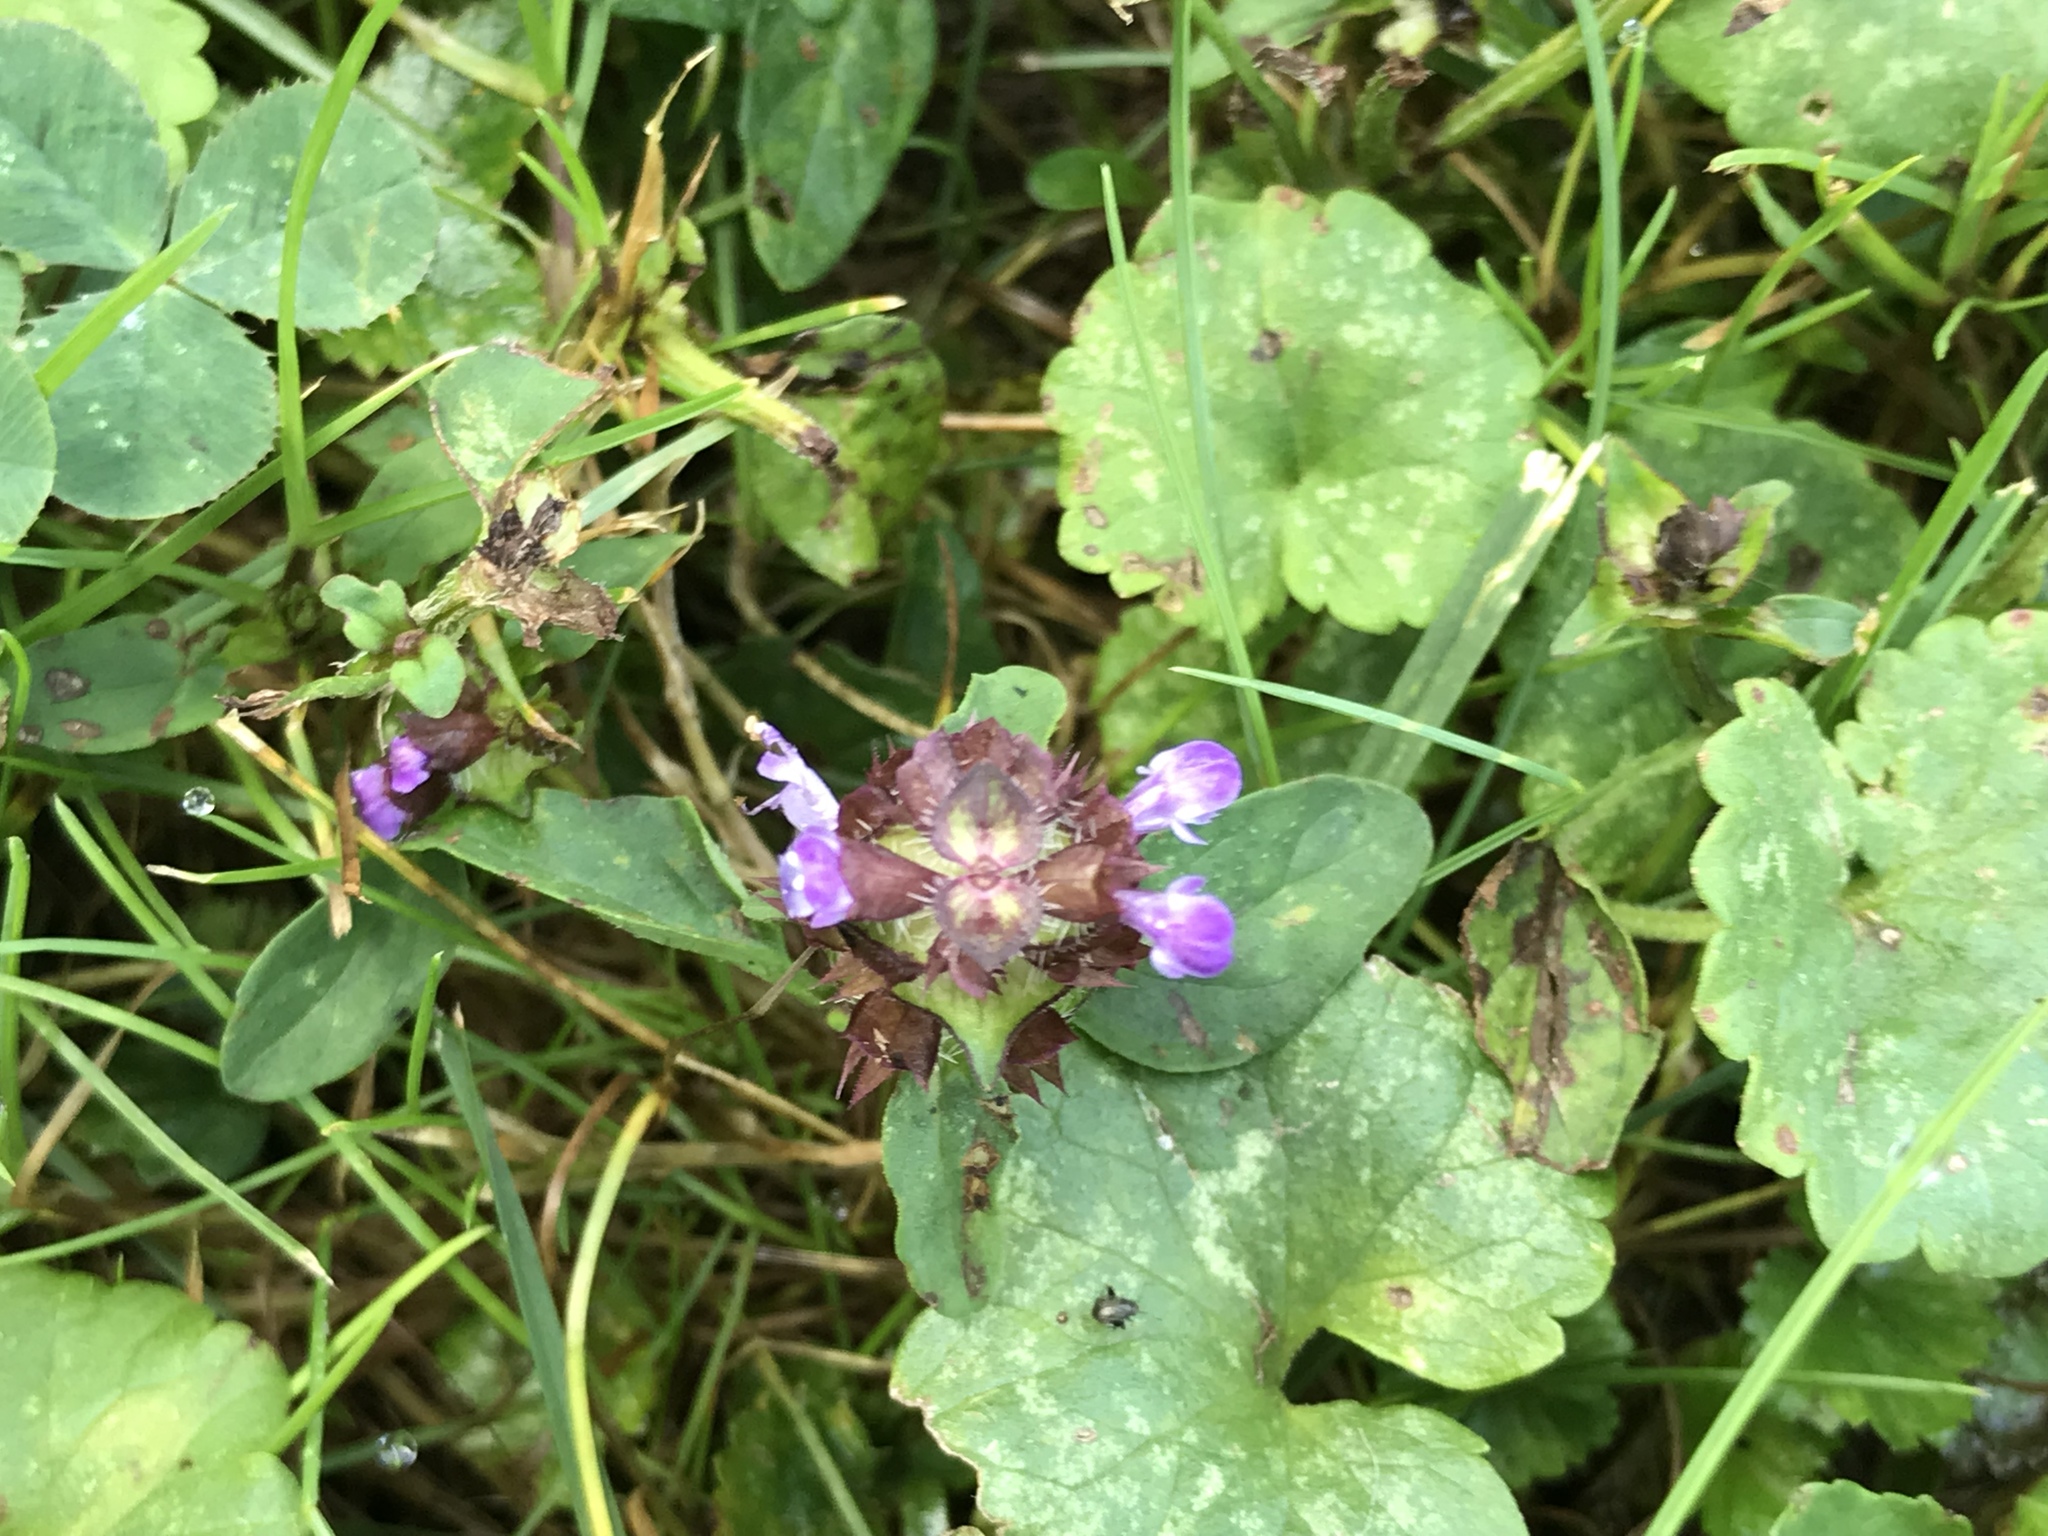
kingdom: Plantae
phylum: Tracheophyta
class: Magnoliopsida
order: Lamiales
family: Lamiaceae
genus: Prunella
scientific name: Prunella vulgaris
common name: Heal-all
